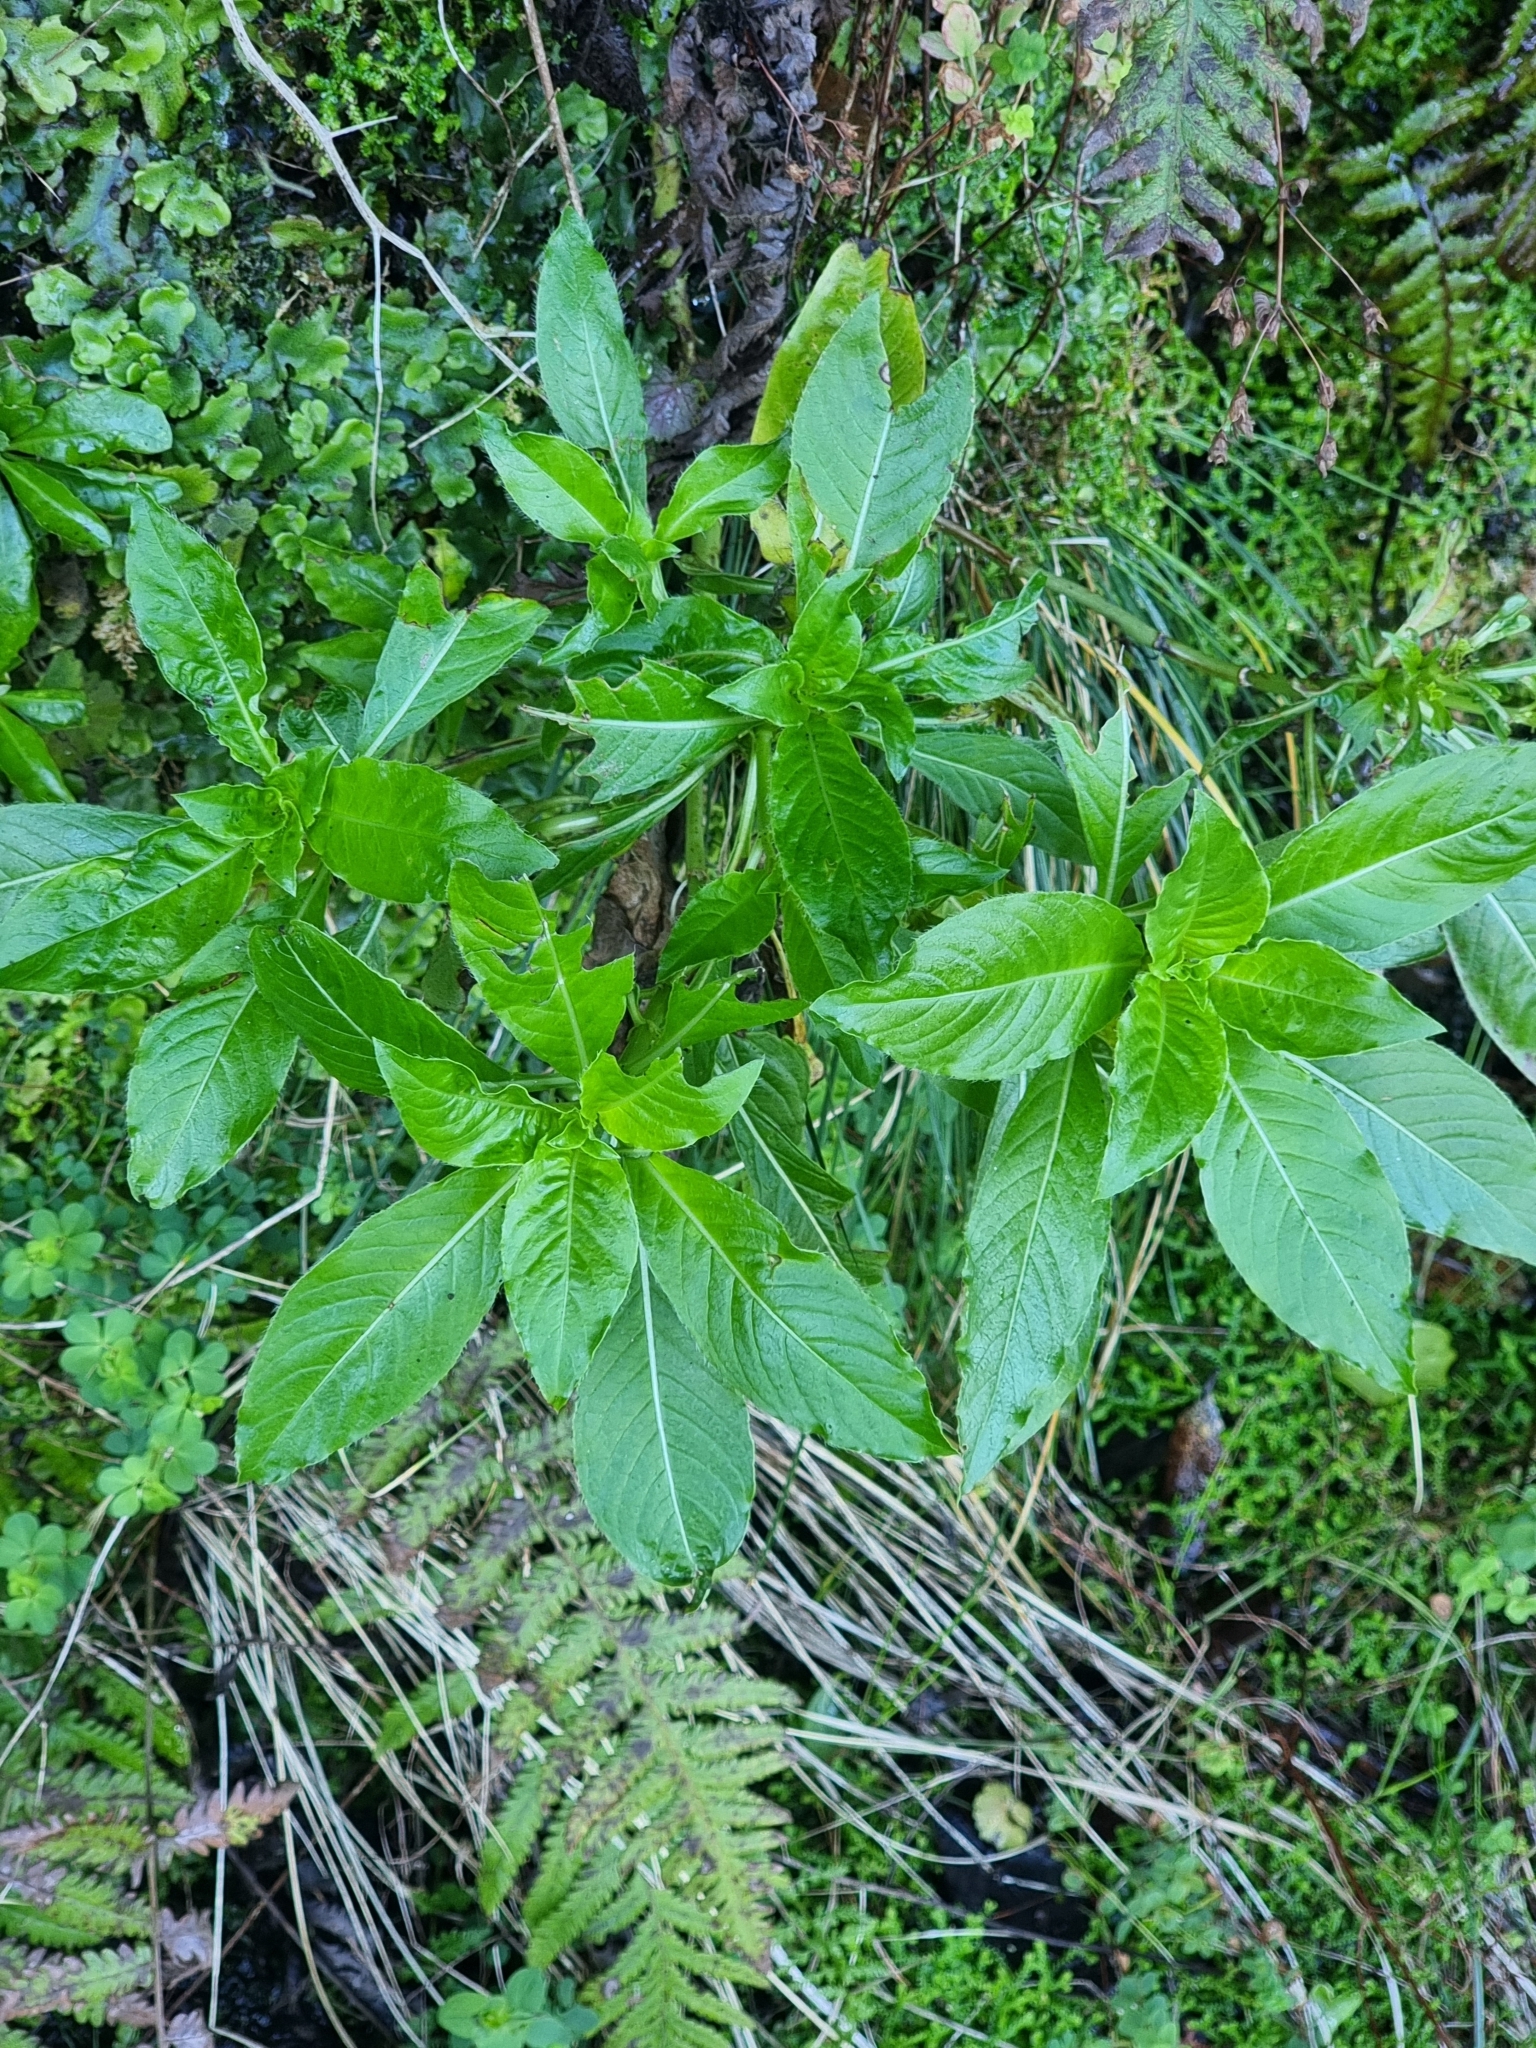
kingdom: Plantae
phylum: Tracheophyta
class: Magnoliopsida
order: Gentianales
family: Rubiaceae
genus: Phyllis
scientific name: Phyllis nobla
